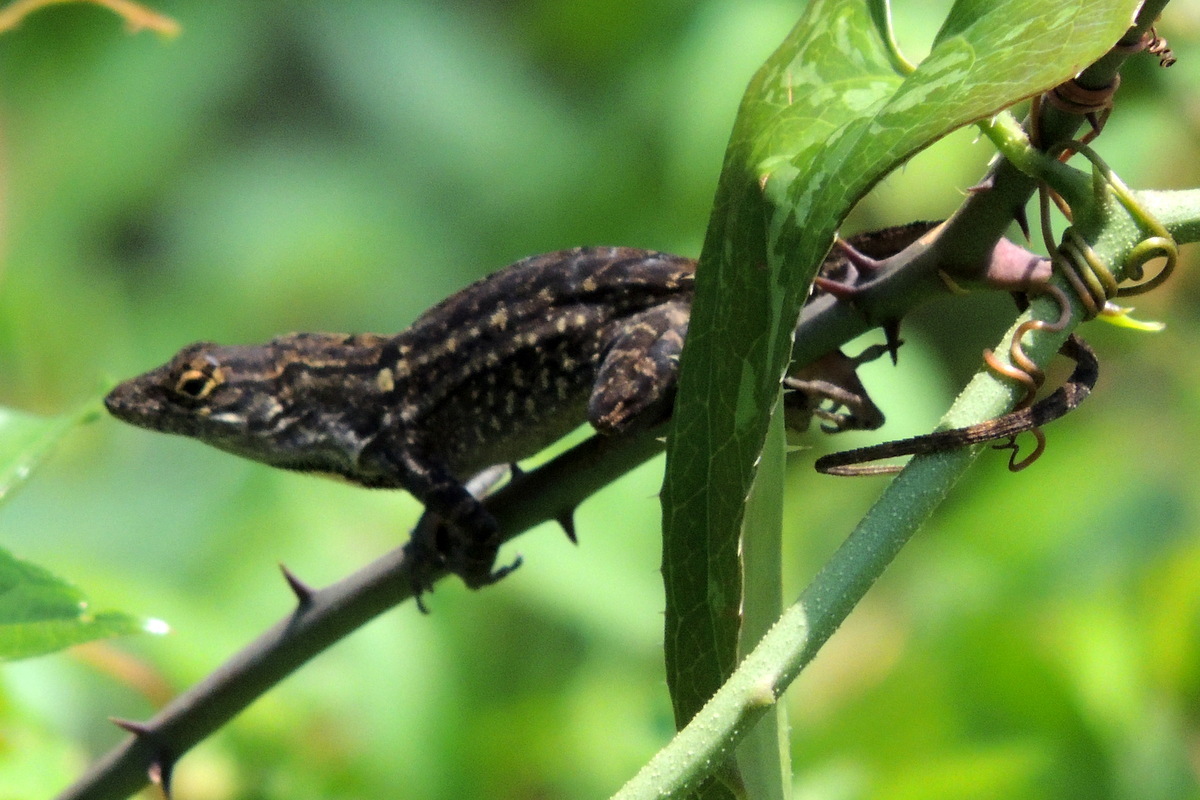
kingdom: Animalia
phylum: Chordata
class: Squamata
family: Dactyloidae
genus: Anolis
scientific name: Anolis sagrei
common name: Brown anole
